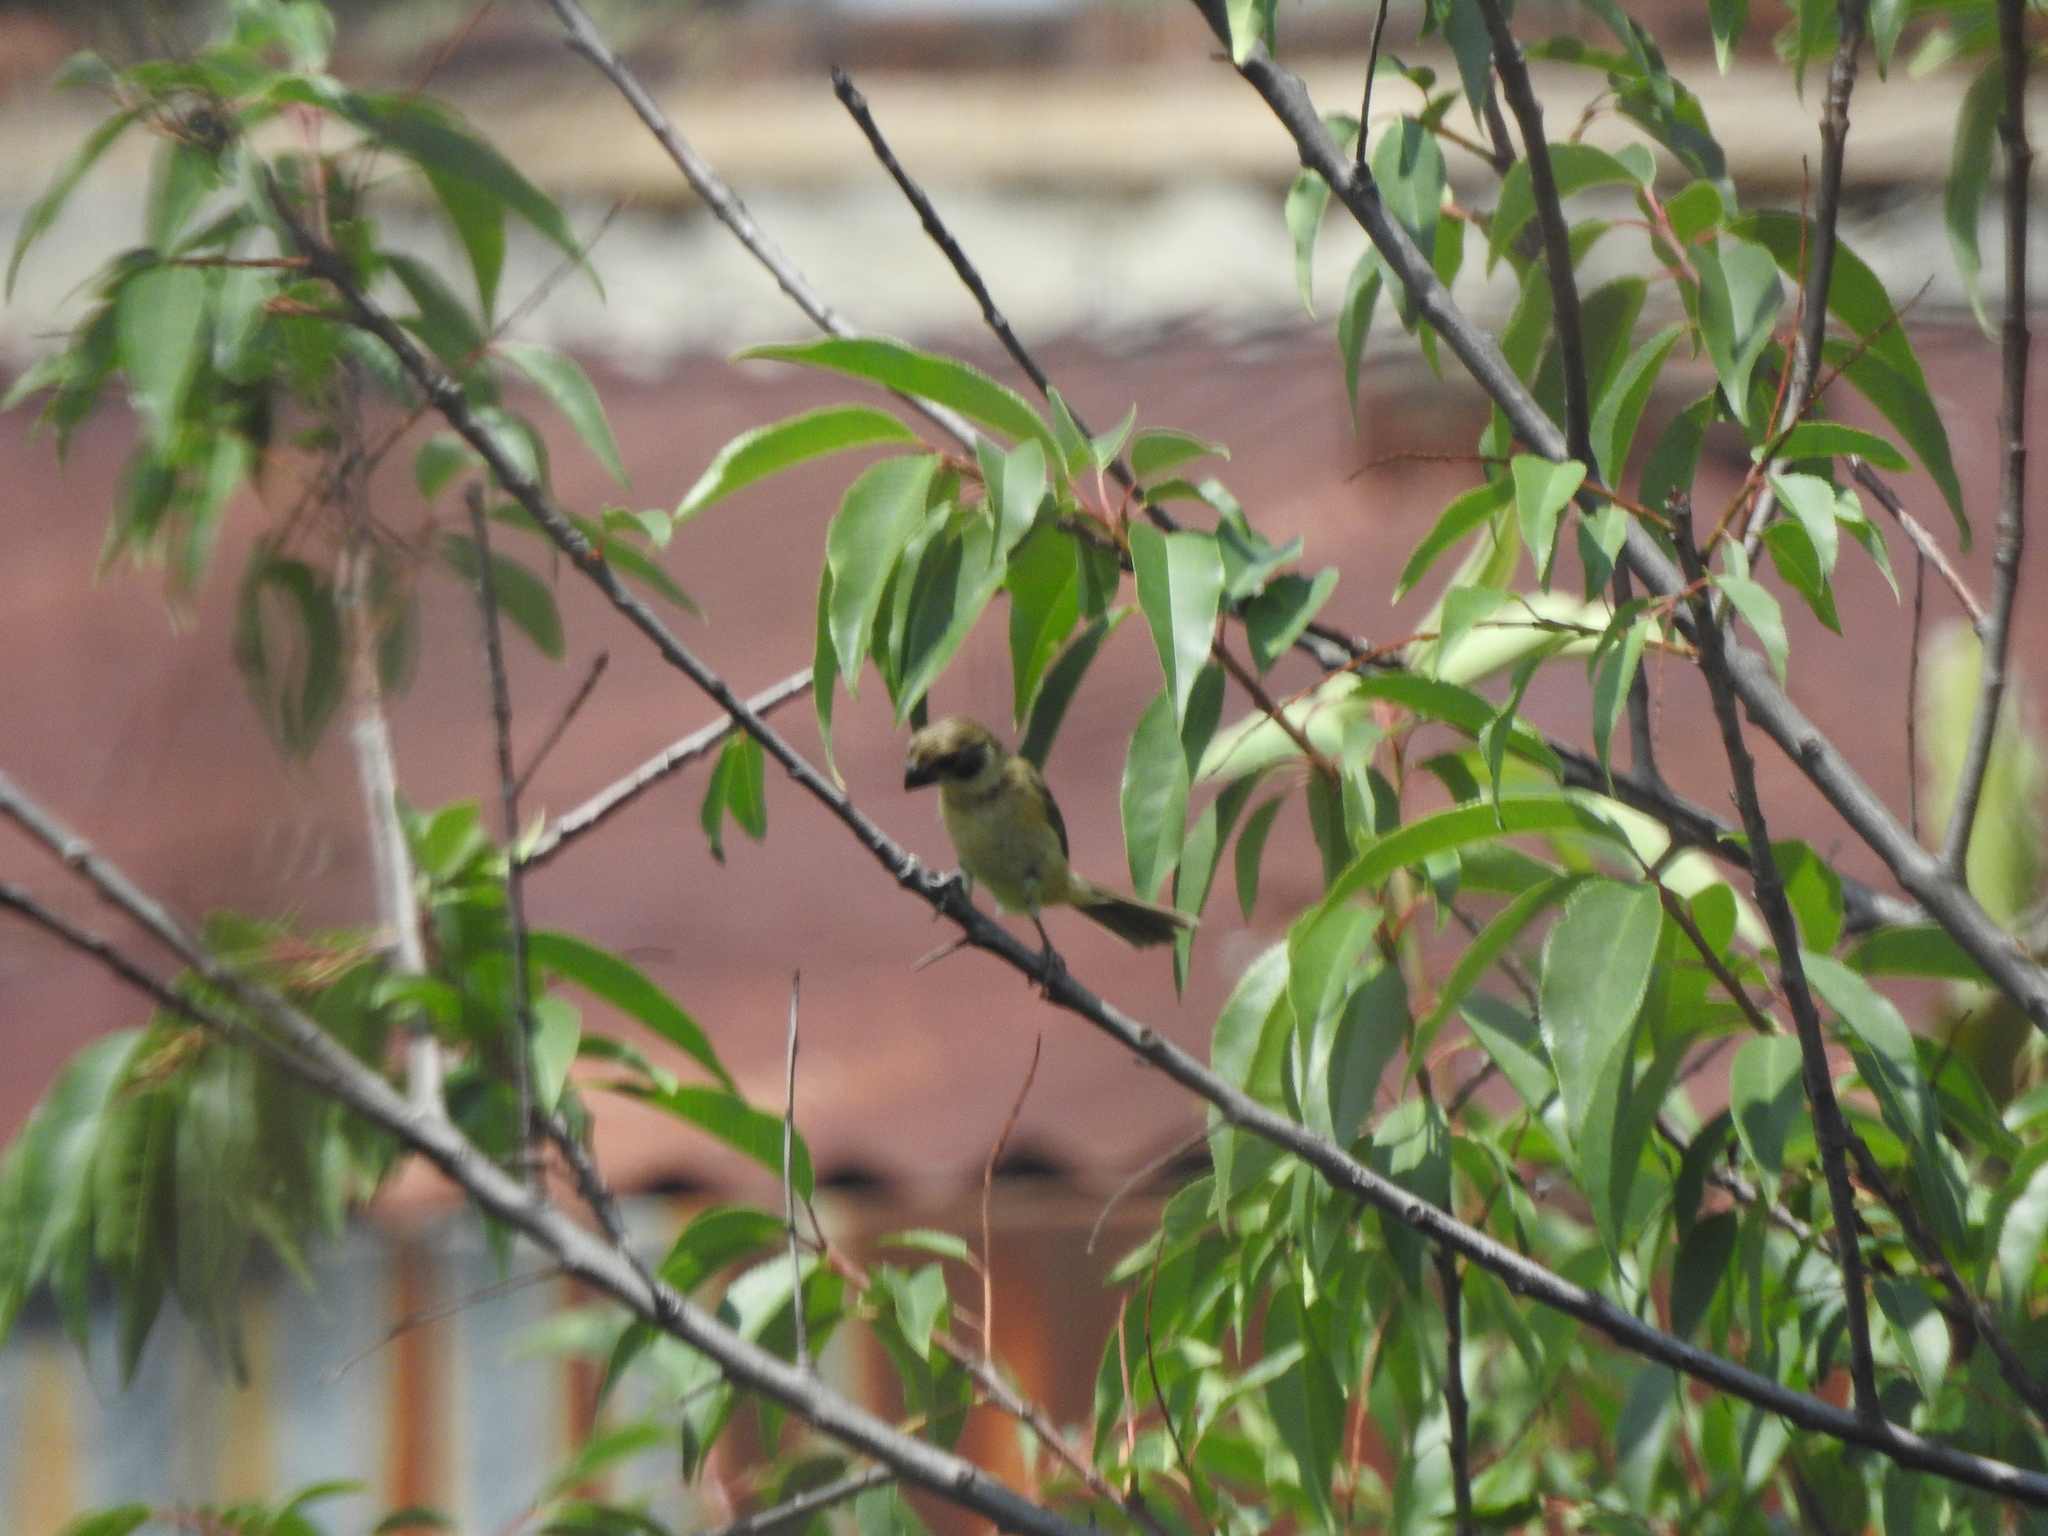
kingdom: Animalia
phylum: Chordata
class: Aves
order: Passeriformes
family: Thraupidae
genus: Sporophila
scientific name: Sporophila torqueola
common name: White-collared seedeater
